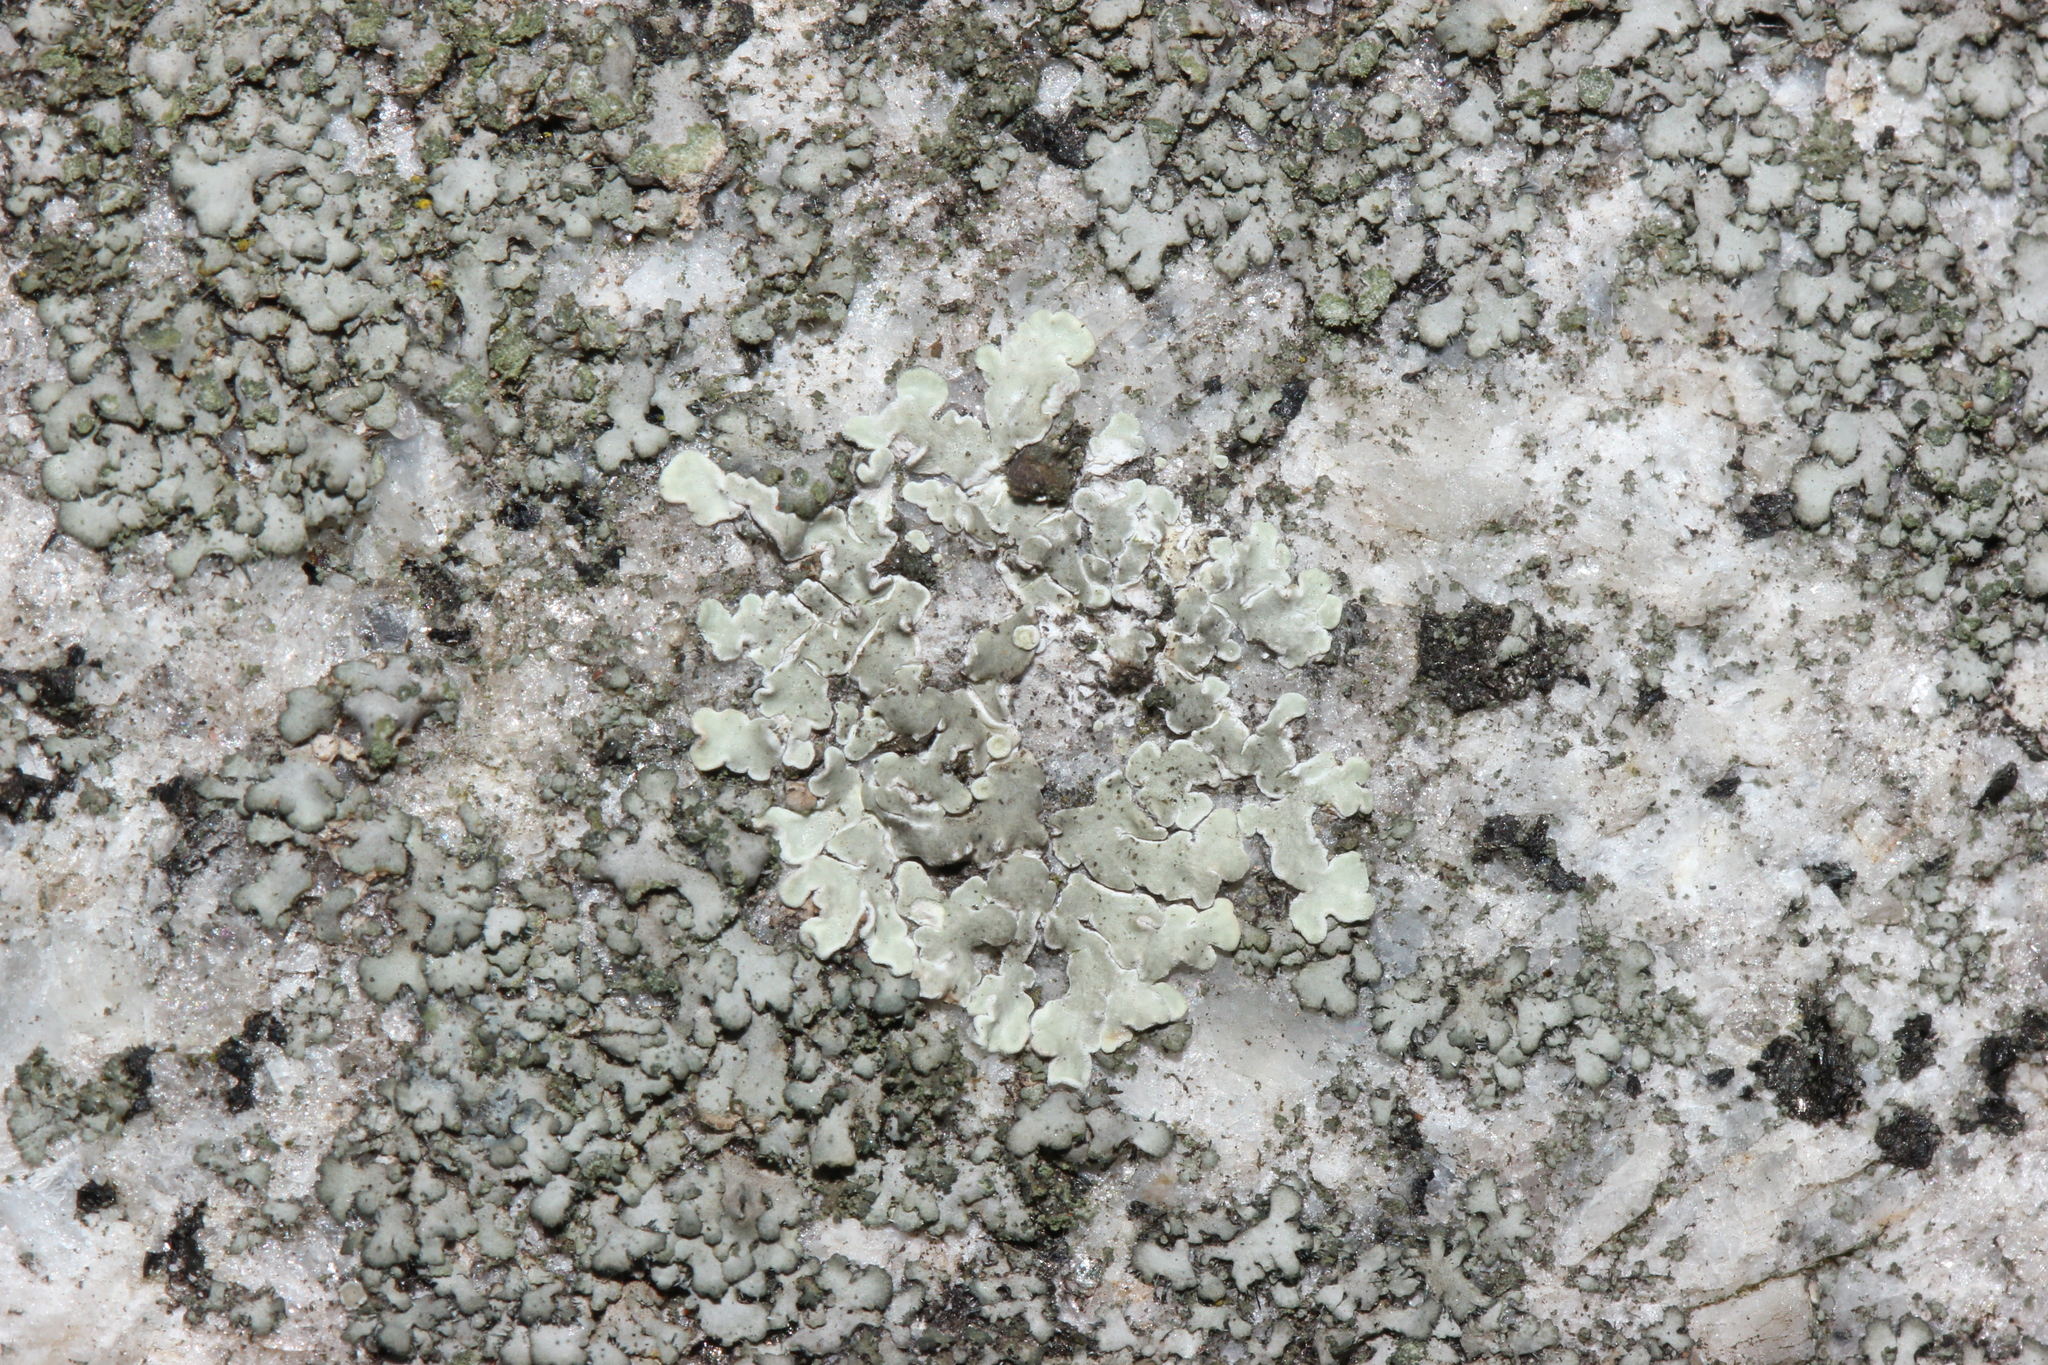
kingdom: Fungi
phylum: Ascomycota
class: Lecanoromycetes
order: Lecanorales
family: Lecanoraceae
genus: Protoparmeliopsis
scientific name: Protoparmeliopsis muralis
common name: Stonewall rim lichen
